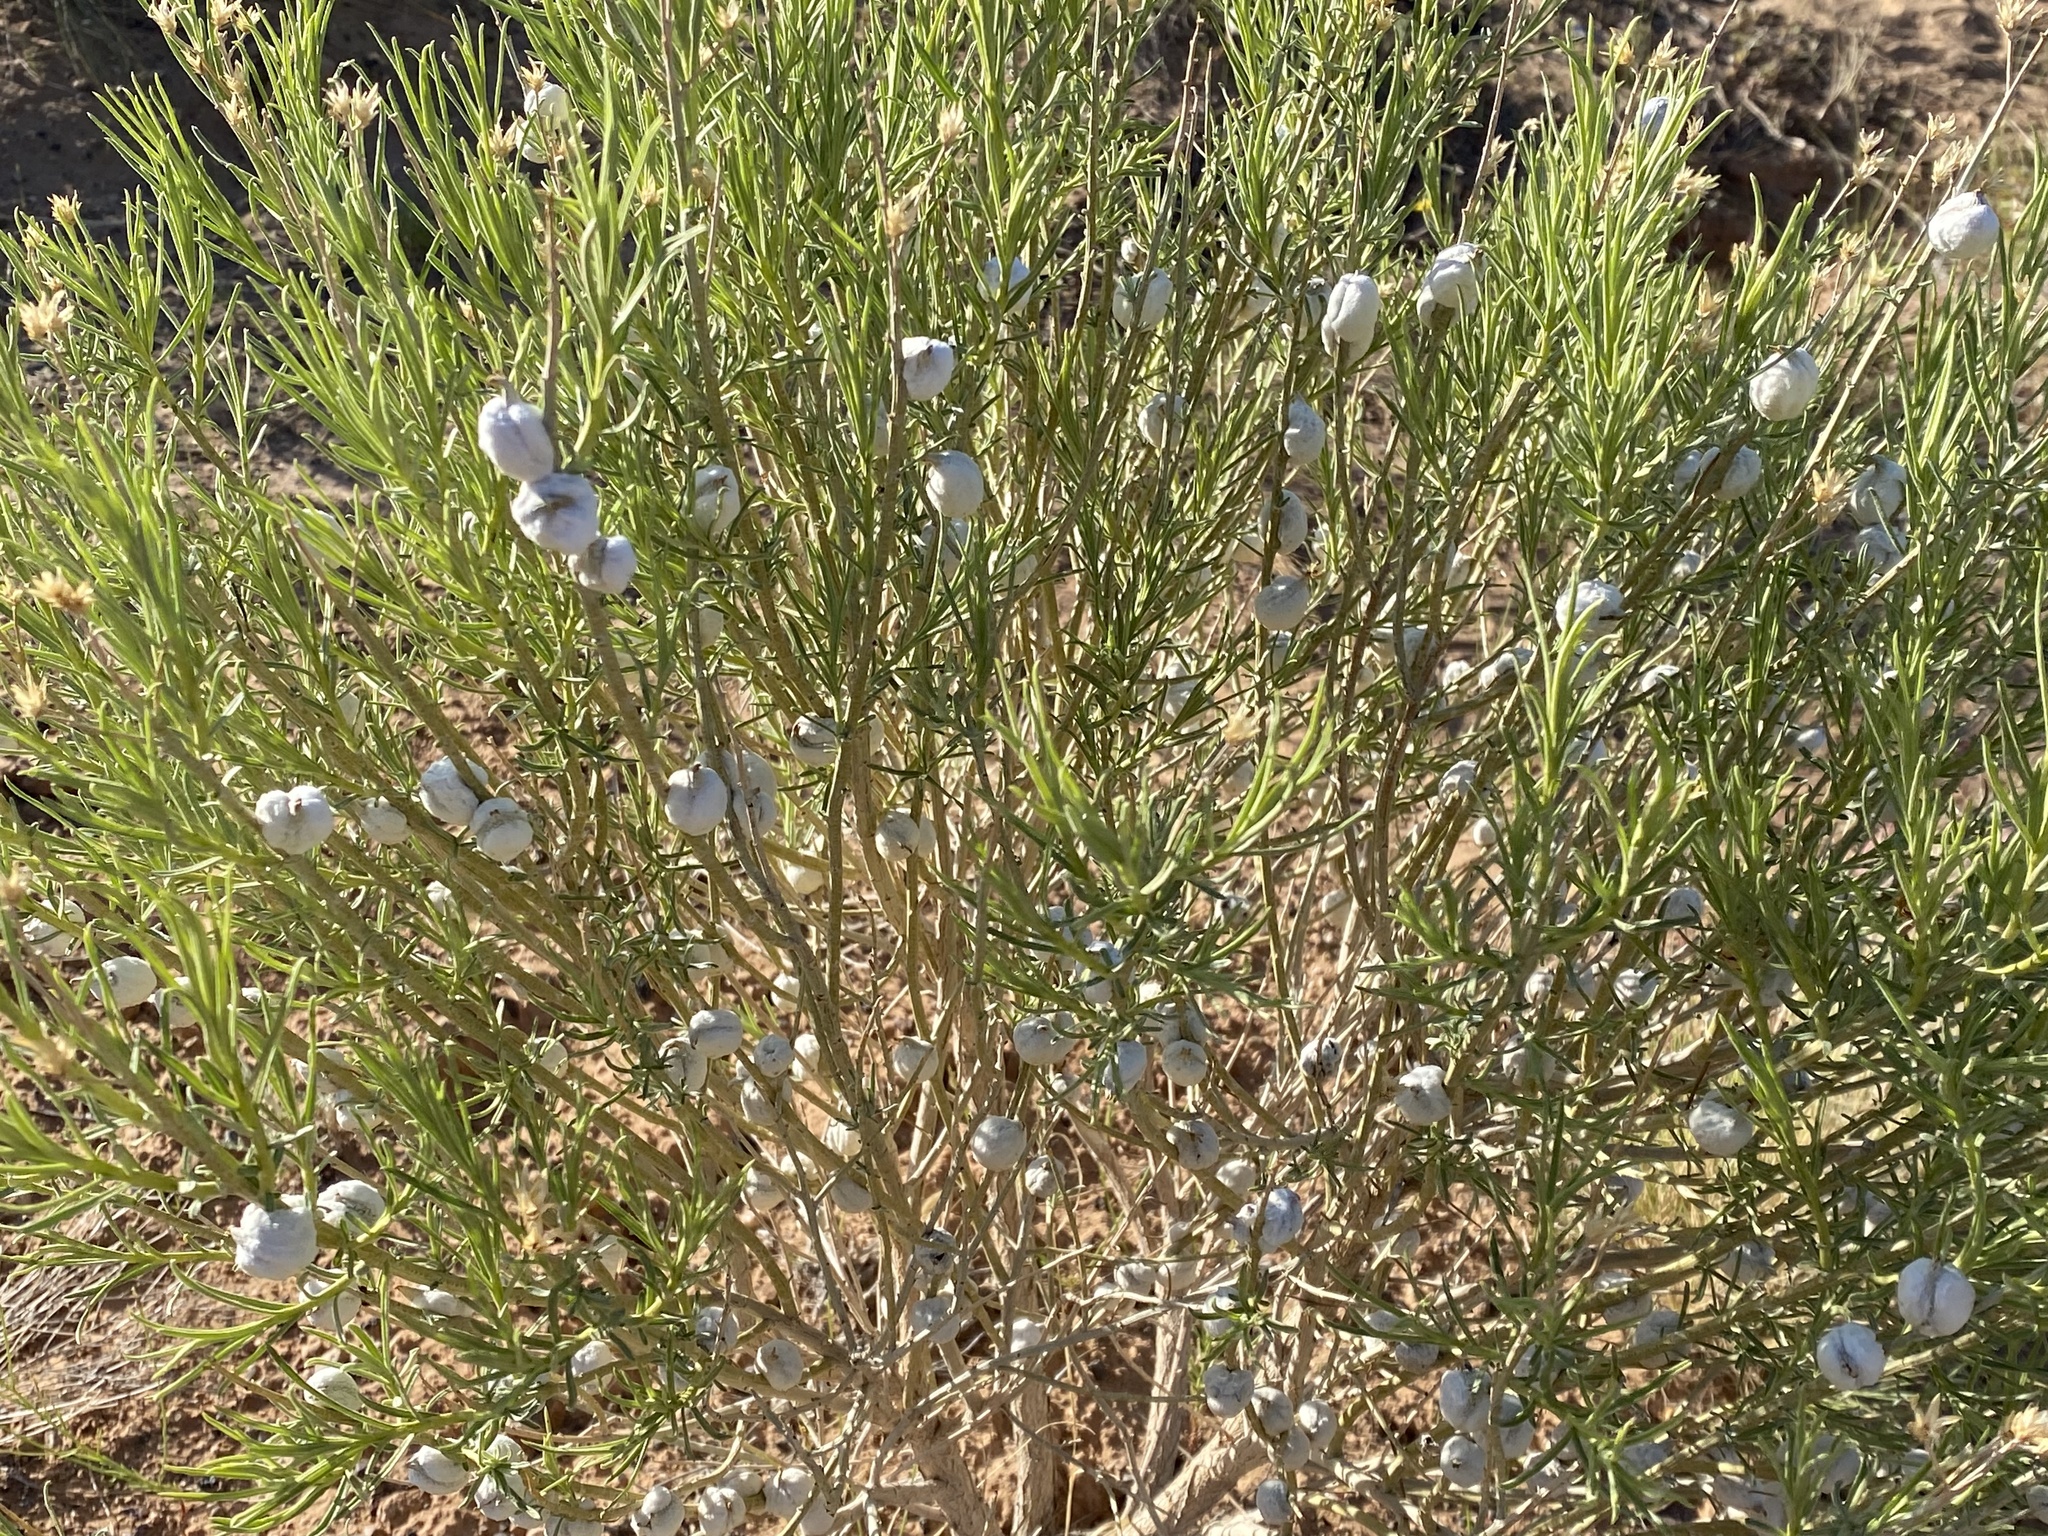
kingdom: Animalia
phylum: Arthropoda
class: Insecta
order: Diptera
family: Tephritidae
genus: Aciurina
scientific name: Aciurina bigeloviae
